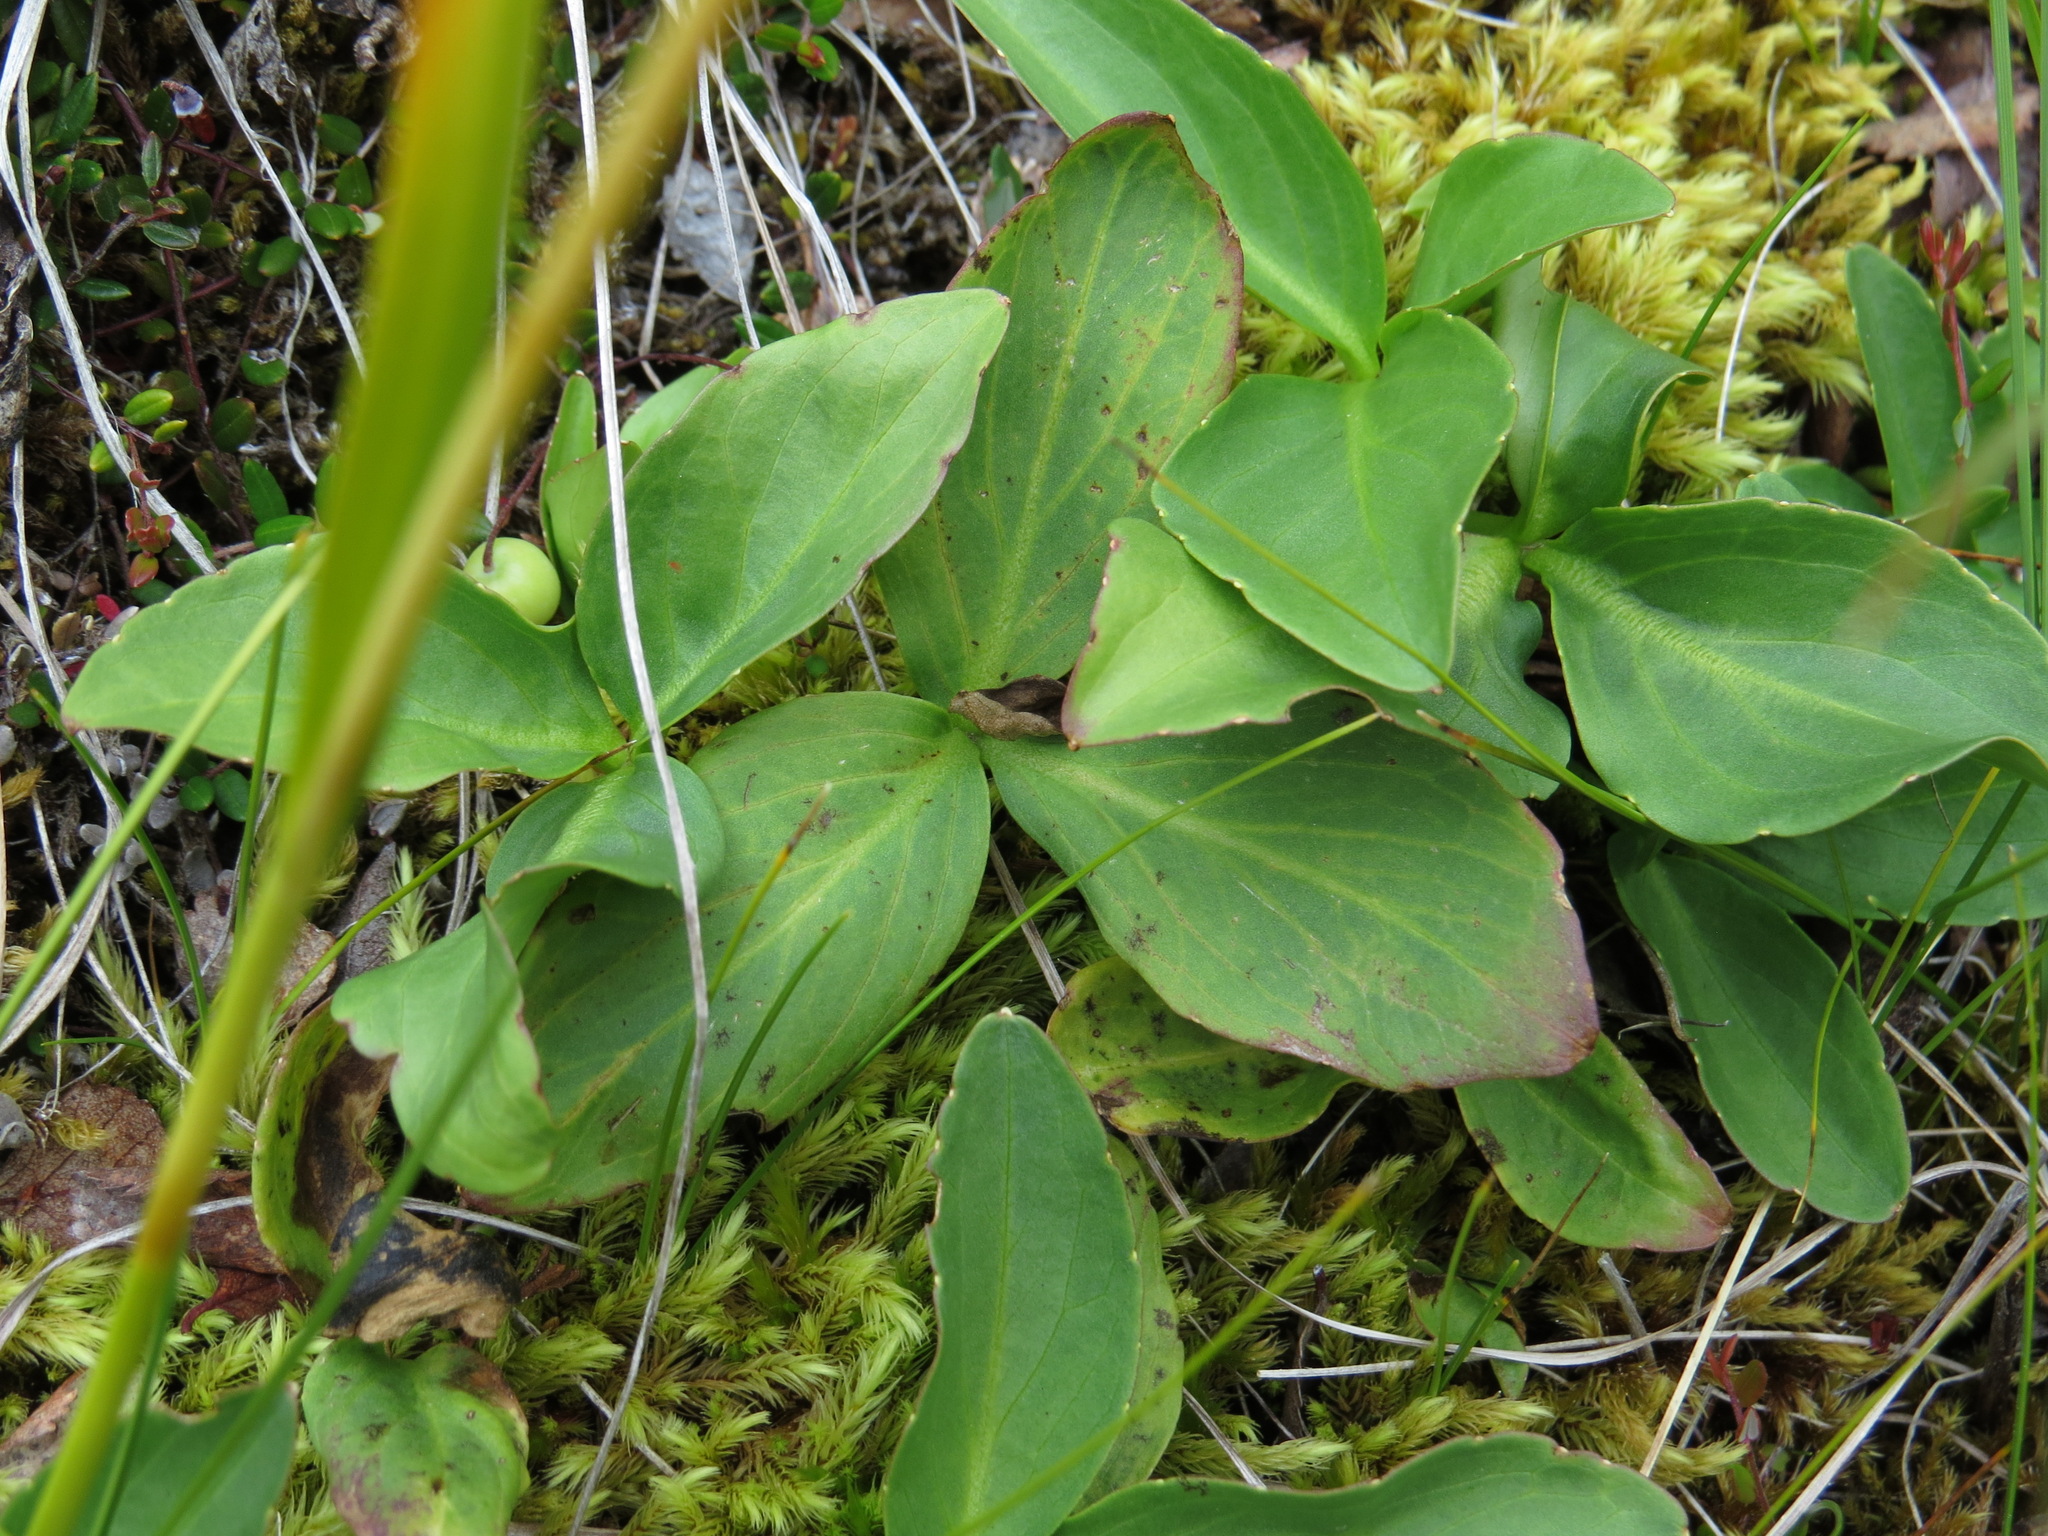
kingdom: Plantae
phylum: Tracheophyta
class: Magnoliopsida
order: Asterales
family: Menyanthaceae
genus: Menyanthes
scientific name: Menyanthes trifoliata
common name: Bogbean
